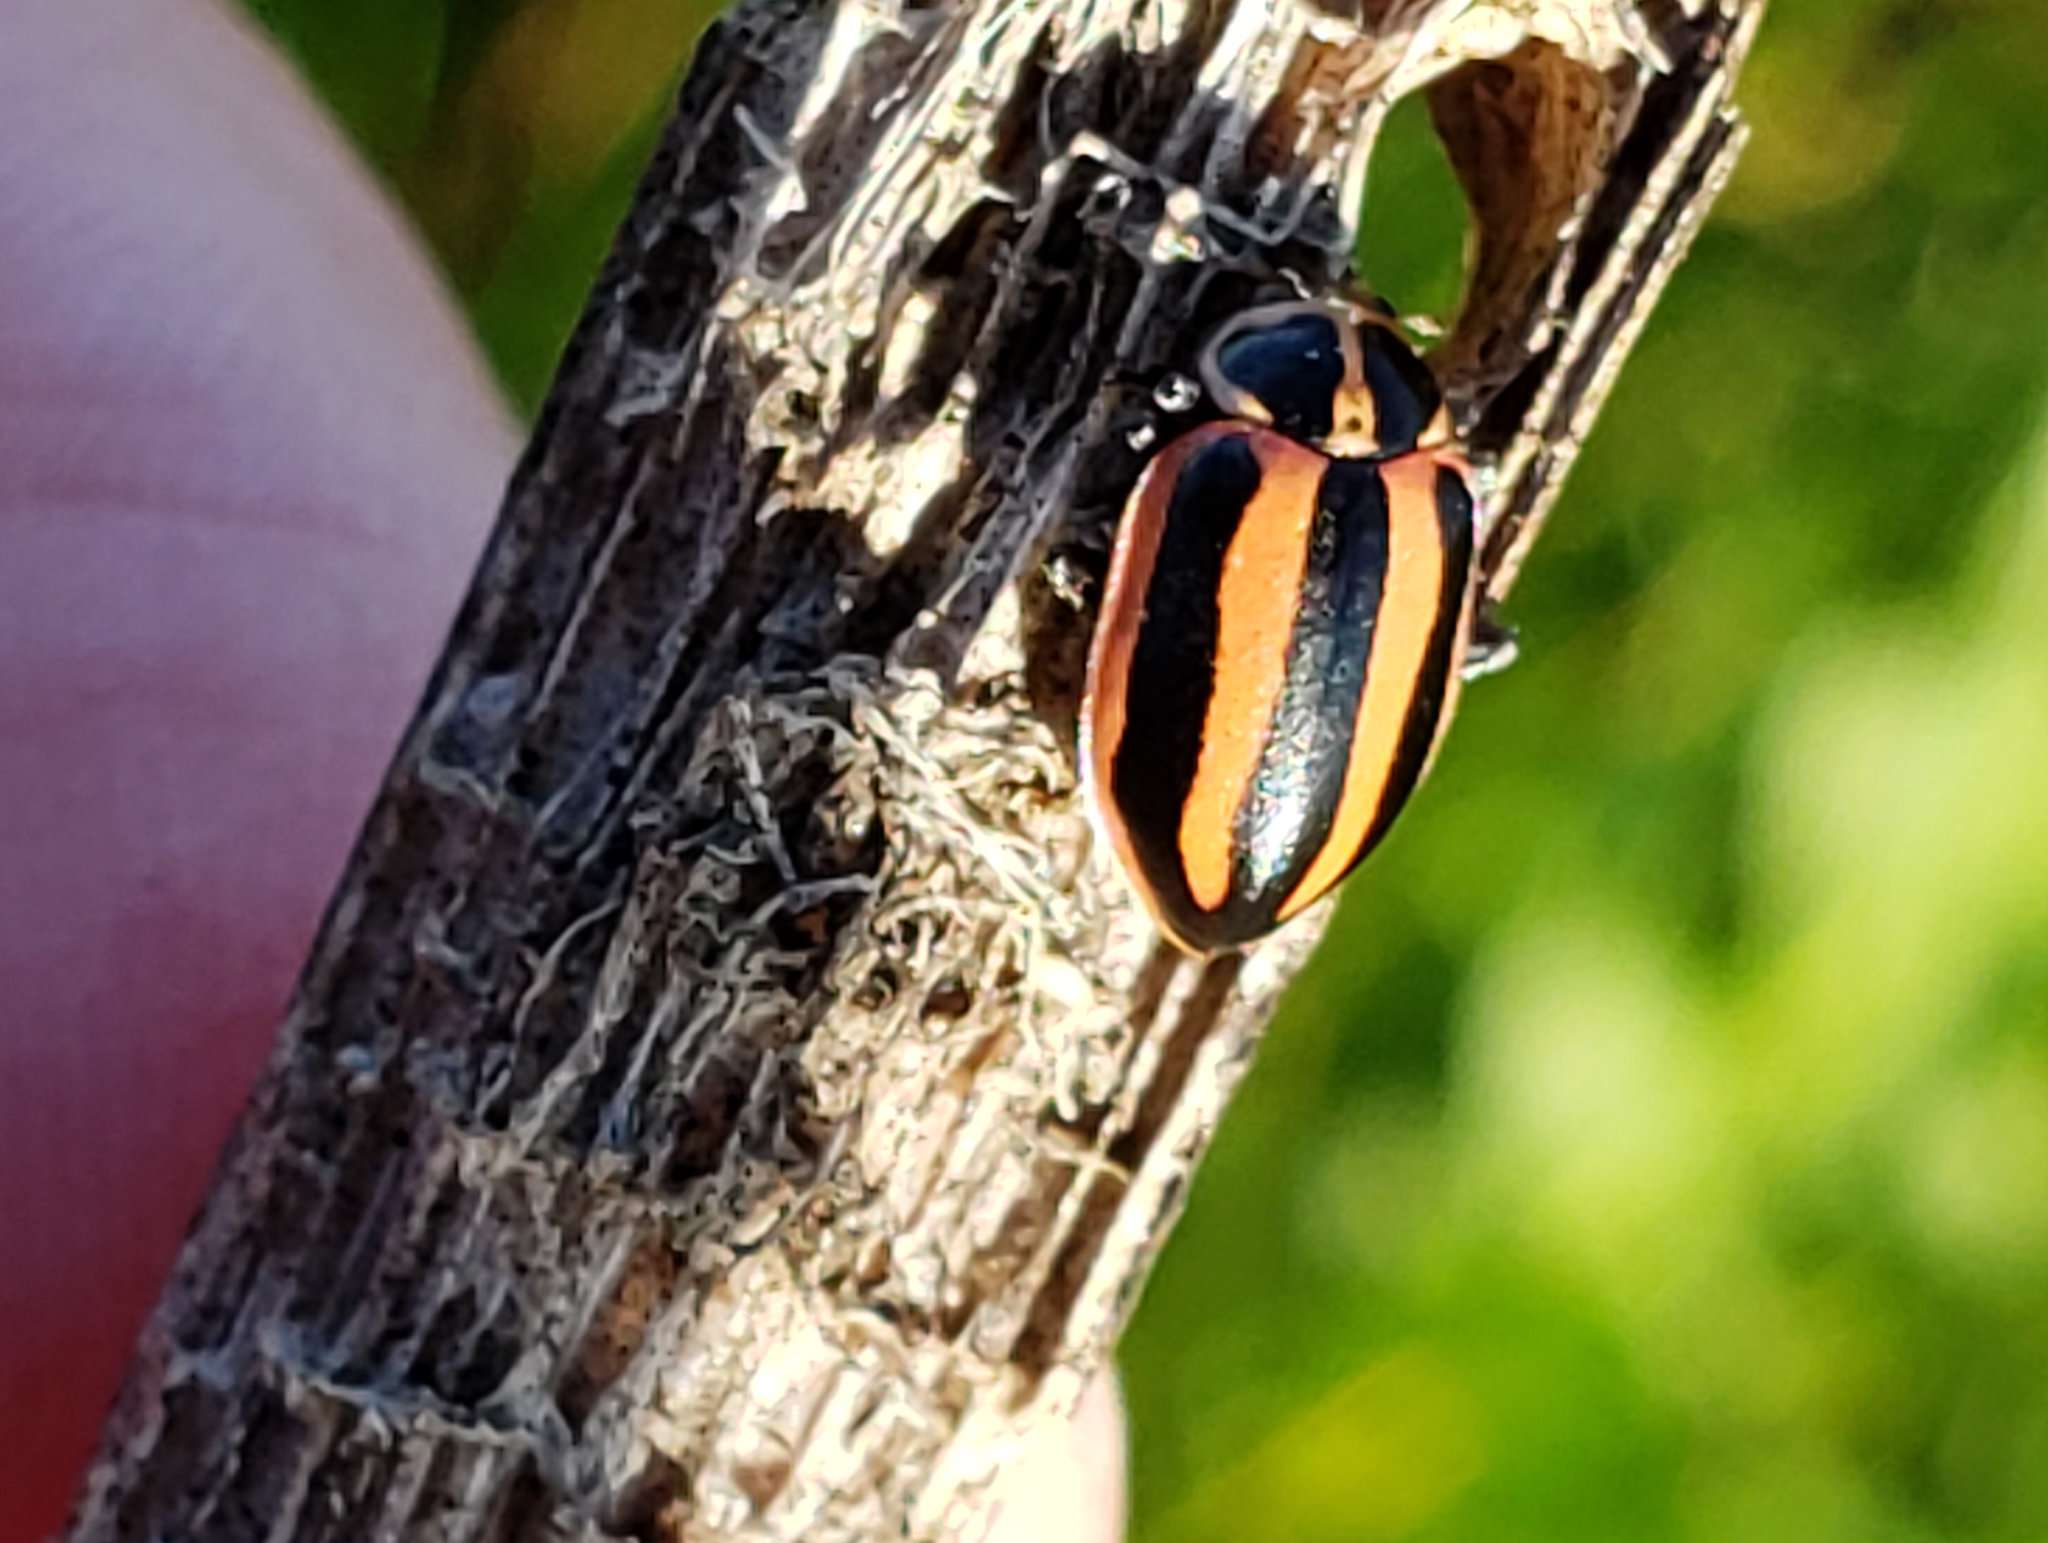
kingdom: Animalia
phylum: Arthropoda
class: Insecta
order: Coleoptera
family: Coccinellidae
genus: Paranaemia
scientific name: Paranaemia vittigera
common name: Ladybird beetle
